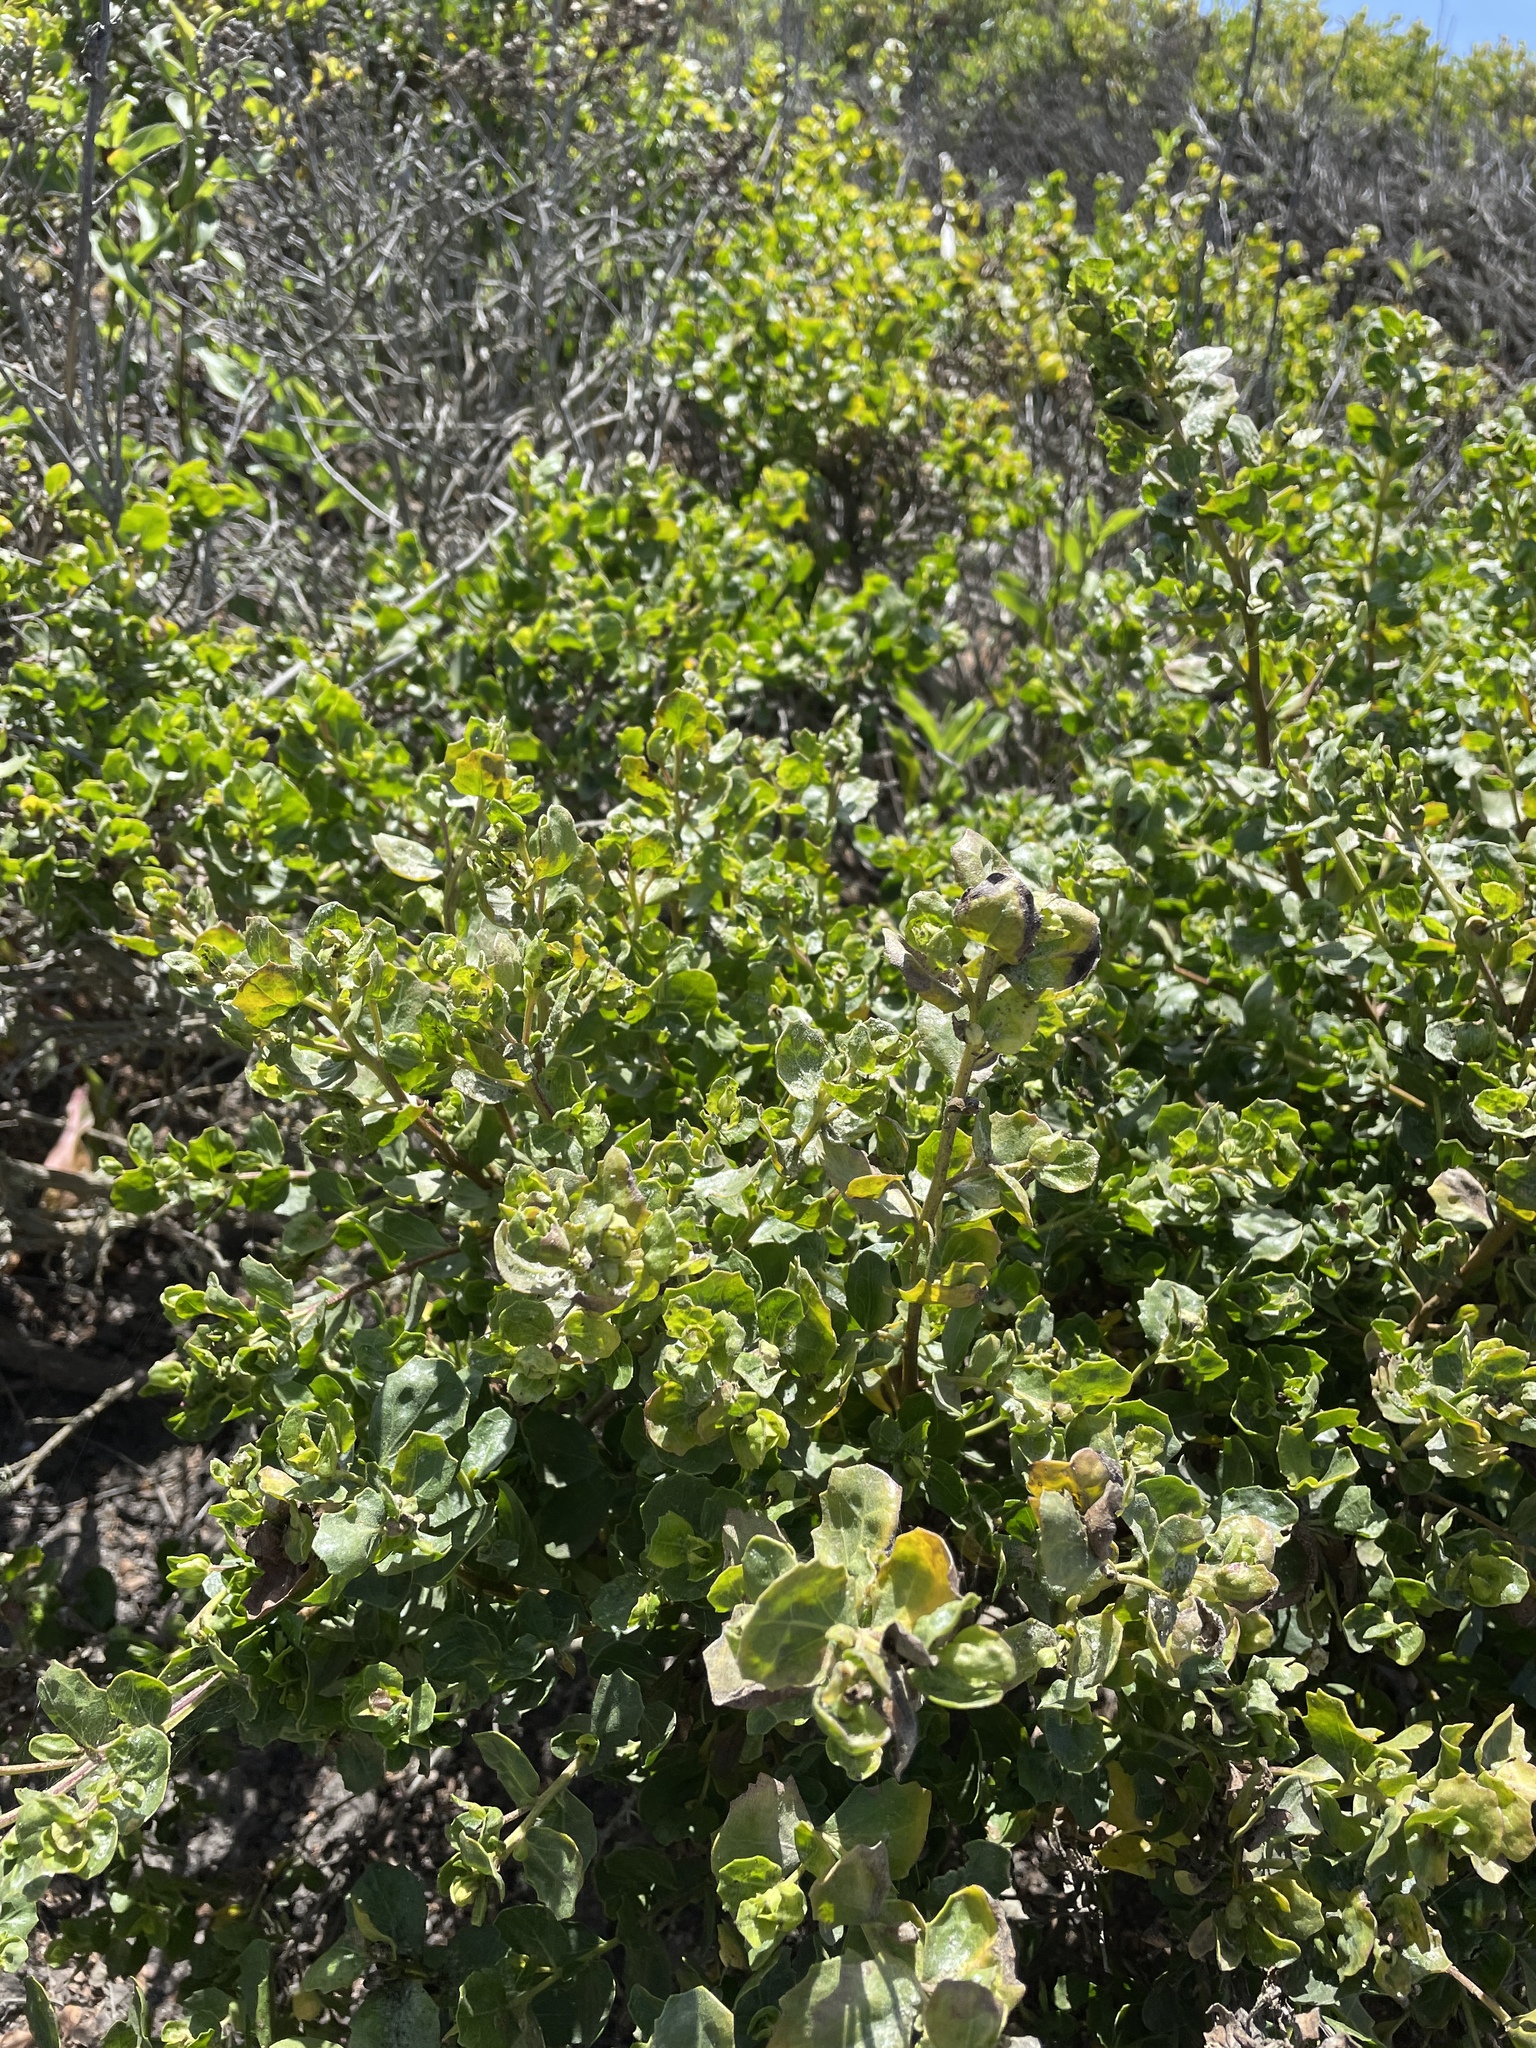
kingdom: Plantae
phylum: Tracheophyta
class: Magnoliopsida
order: Asterales
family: Asteraceae
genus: Baccharis
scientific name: Baccharis pilularis
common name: Coyotebrush
